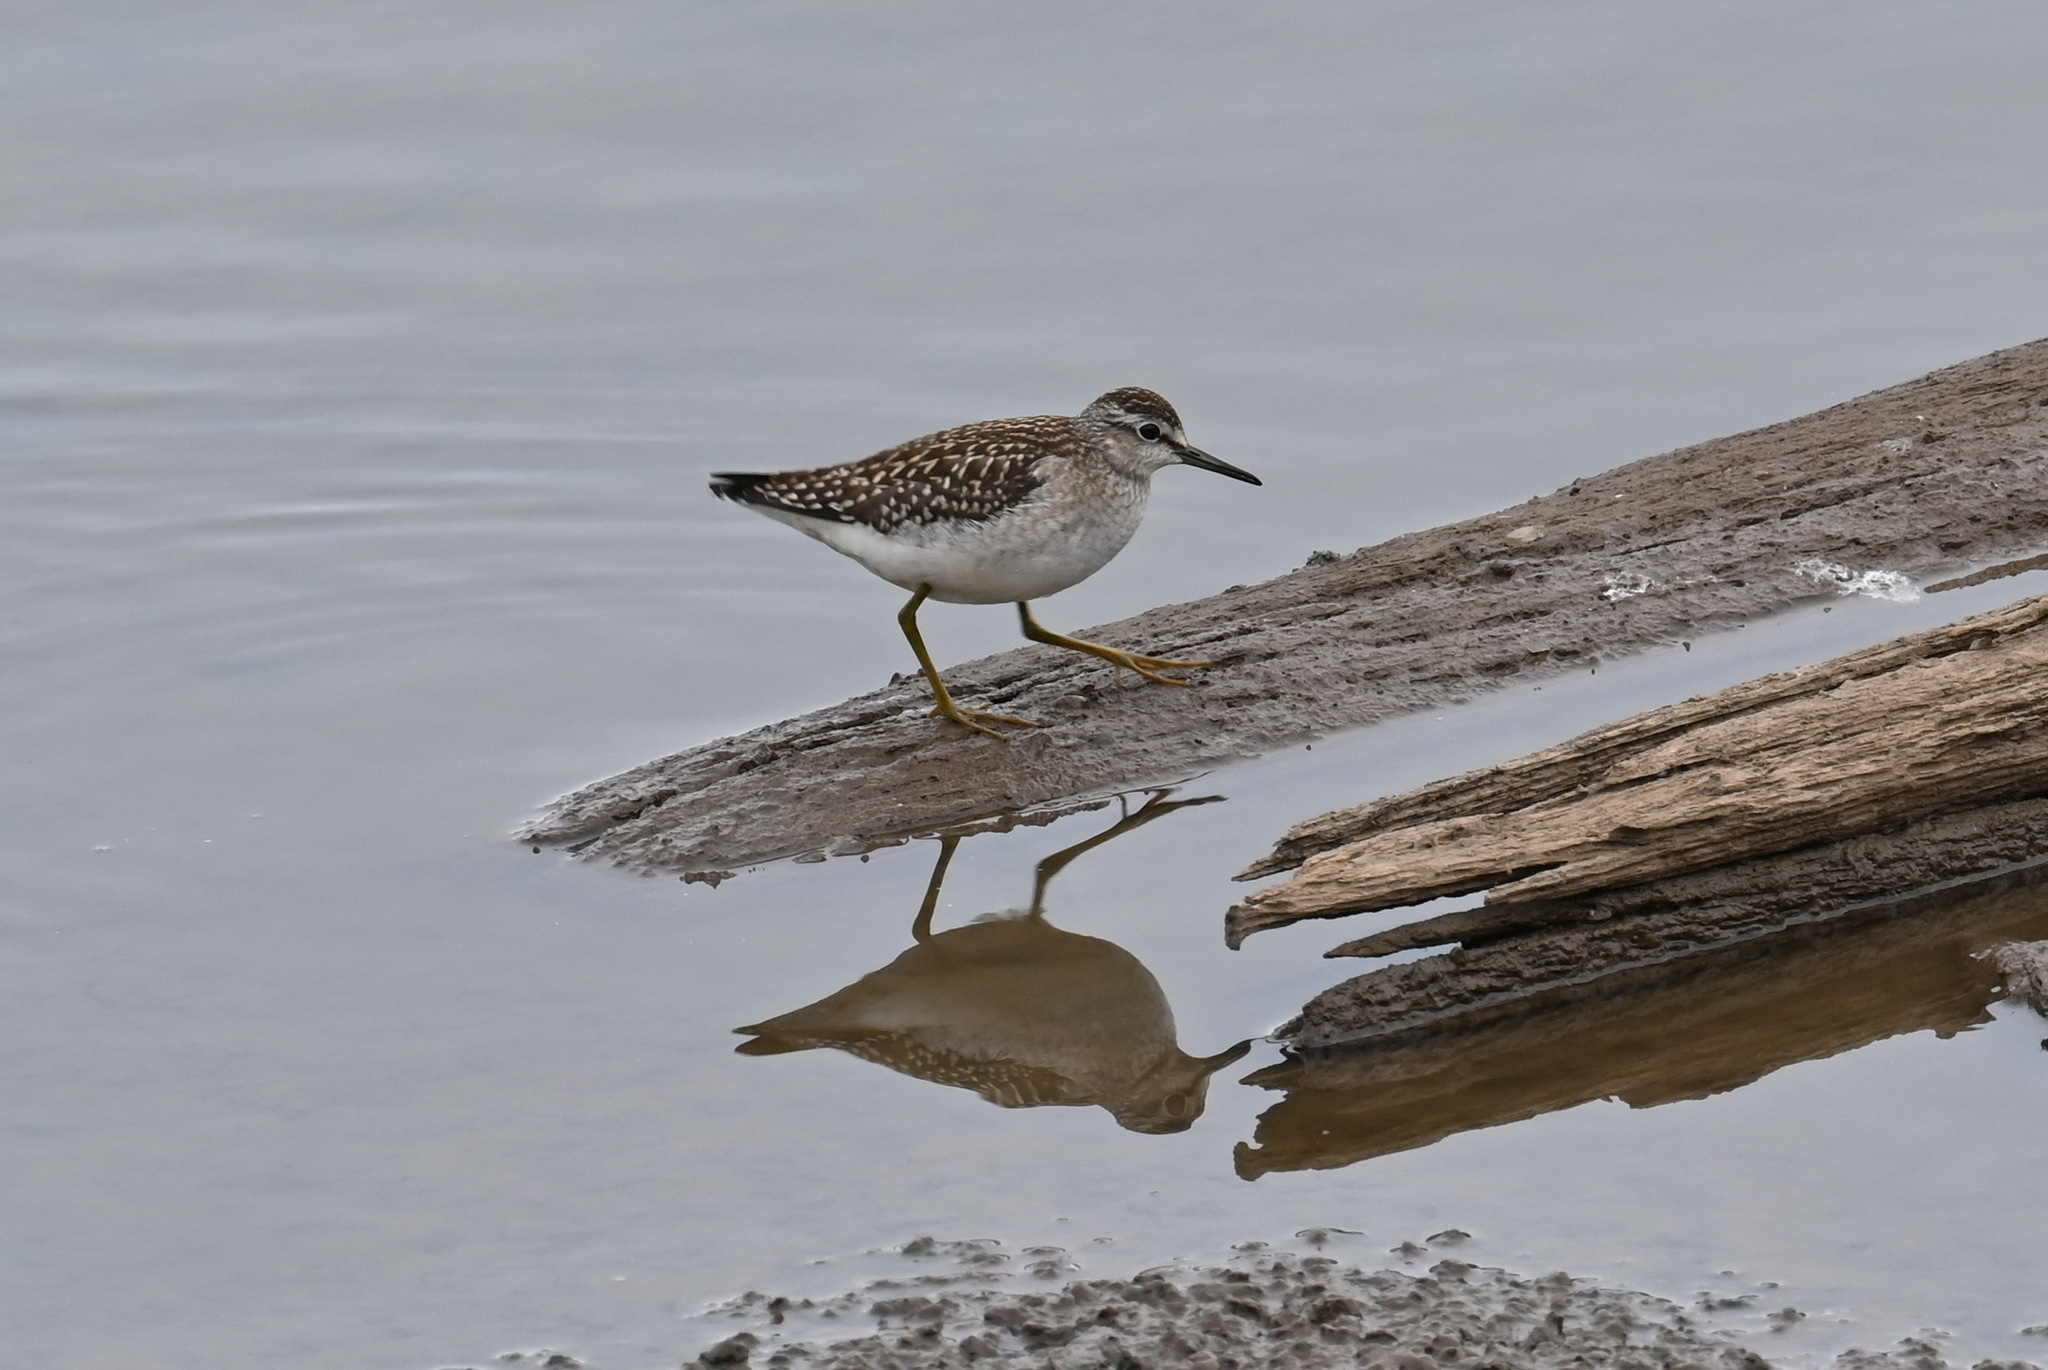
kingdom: Animalia
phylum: Chordata
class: Aves
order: Charadriiformes
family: Scolopacidae
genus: Tringa
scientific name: Tringa glareola
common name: Wood sandpiper
